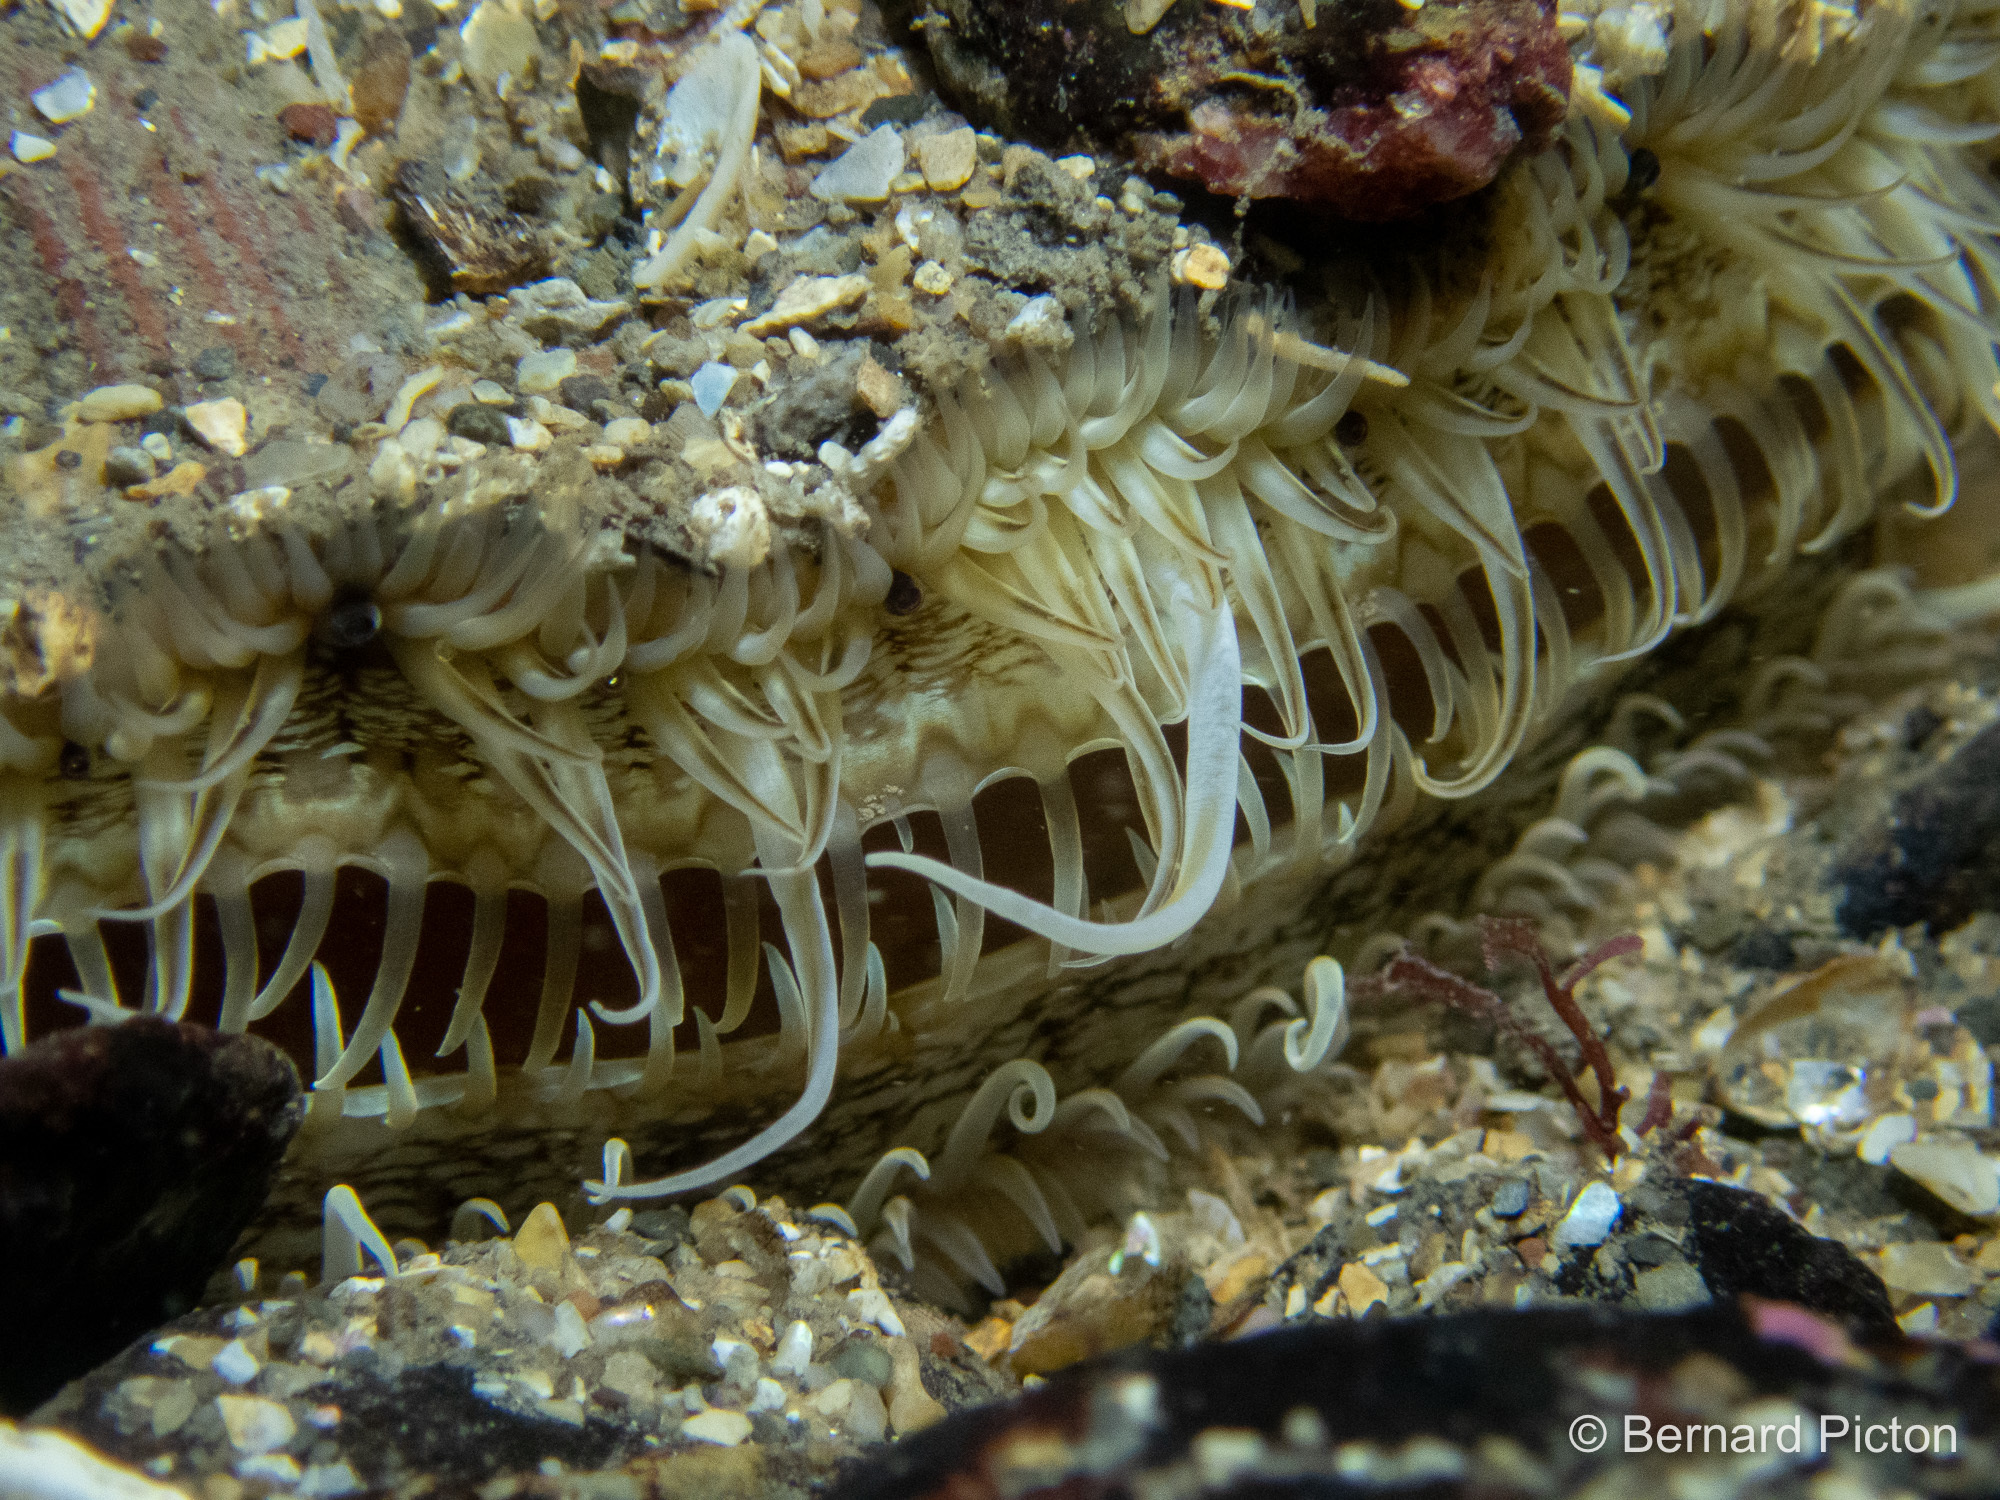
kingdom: Animalia
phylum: Mollusca
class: Bivalvia
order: Pectinida
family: Pectinidae
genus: Pecten
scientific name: Pecten maximus
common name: Great scallop
